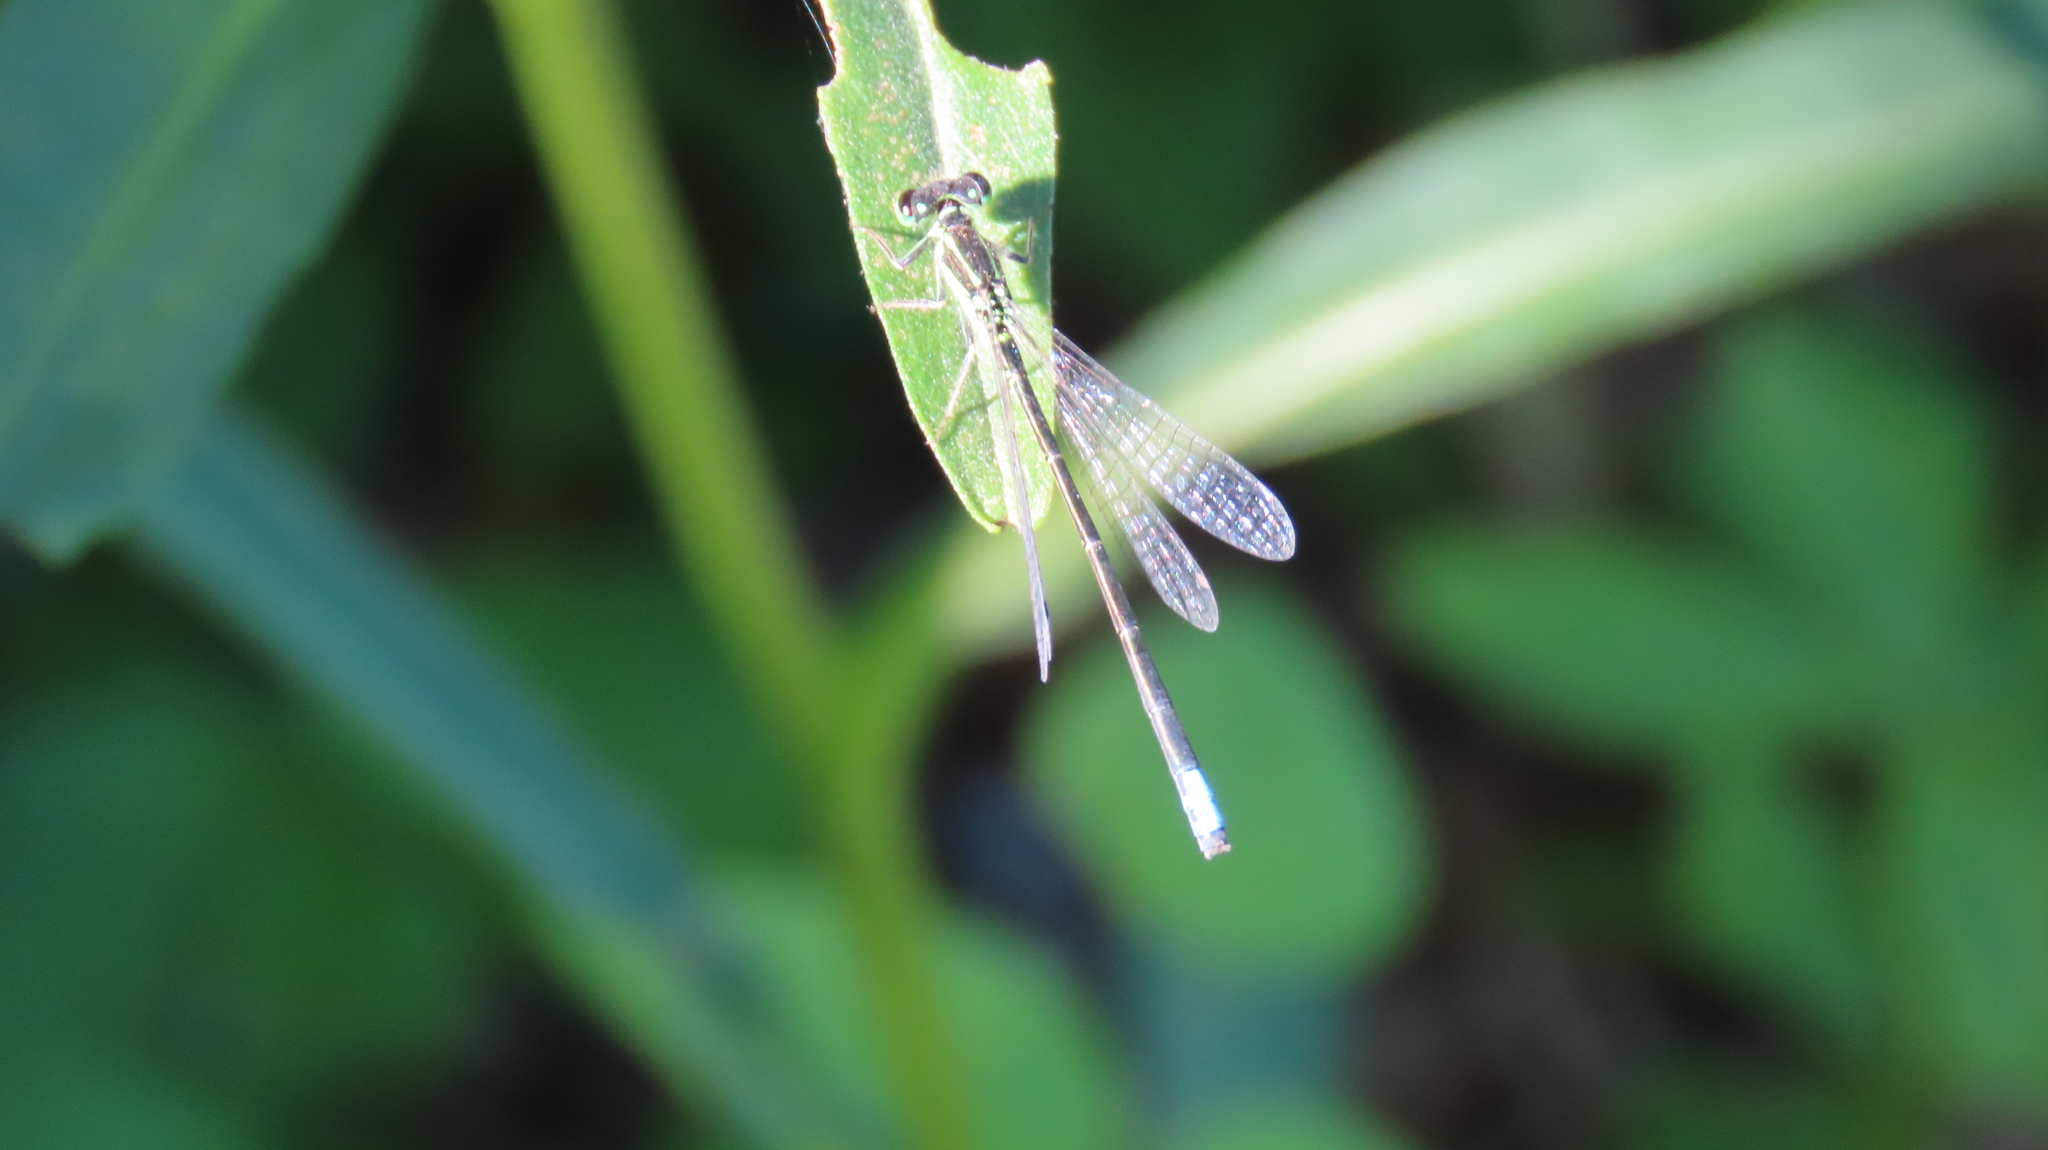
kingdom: Animalia
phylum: Arthropoda
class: Insecta
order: Odonata
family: Coenagrionidae
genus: Ischnura
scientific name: Ischnura verticalis
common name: Eastern forktail
